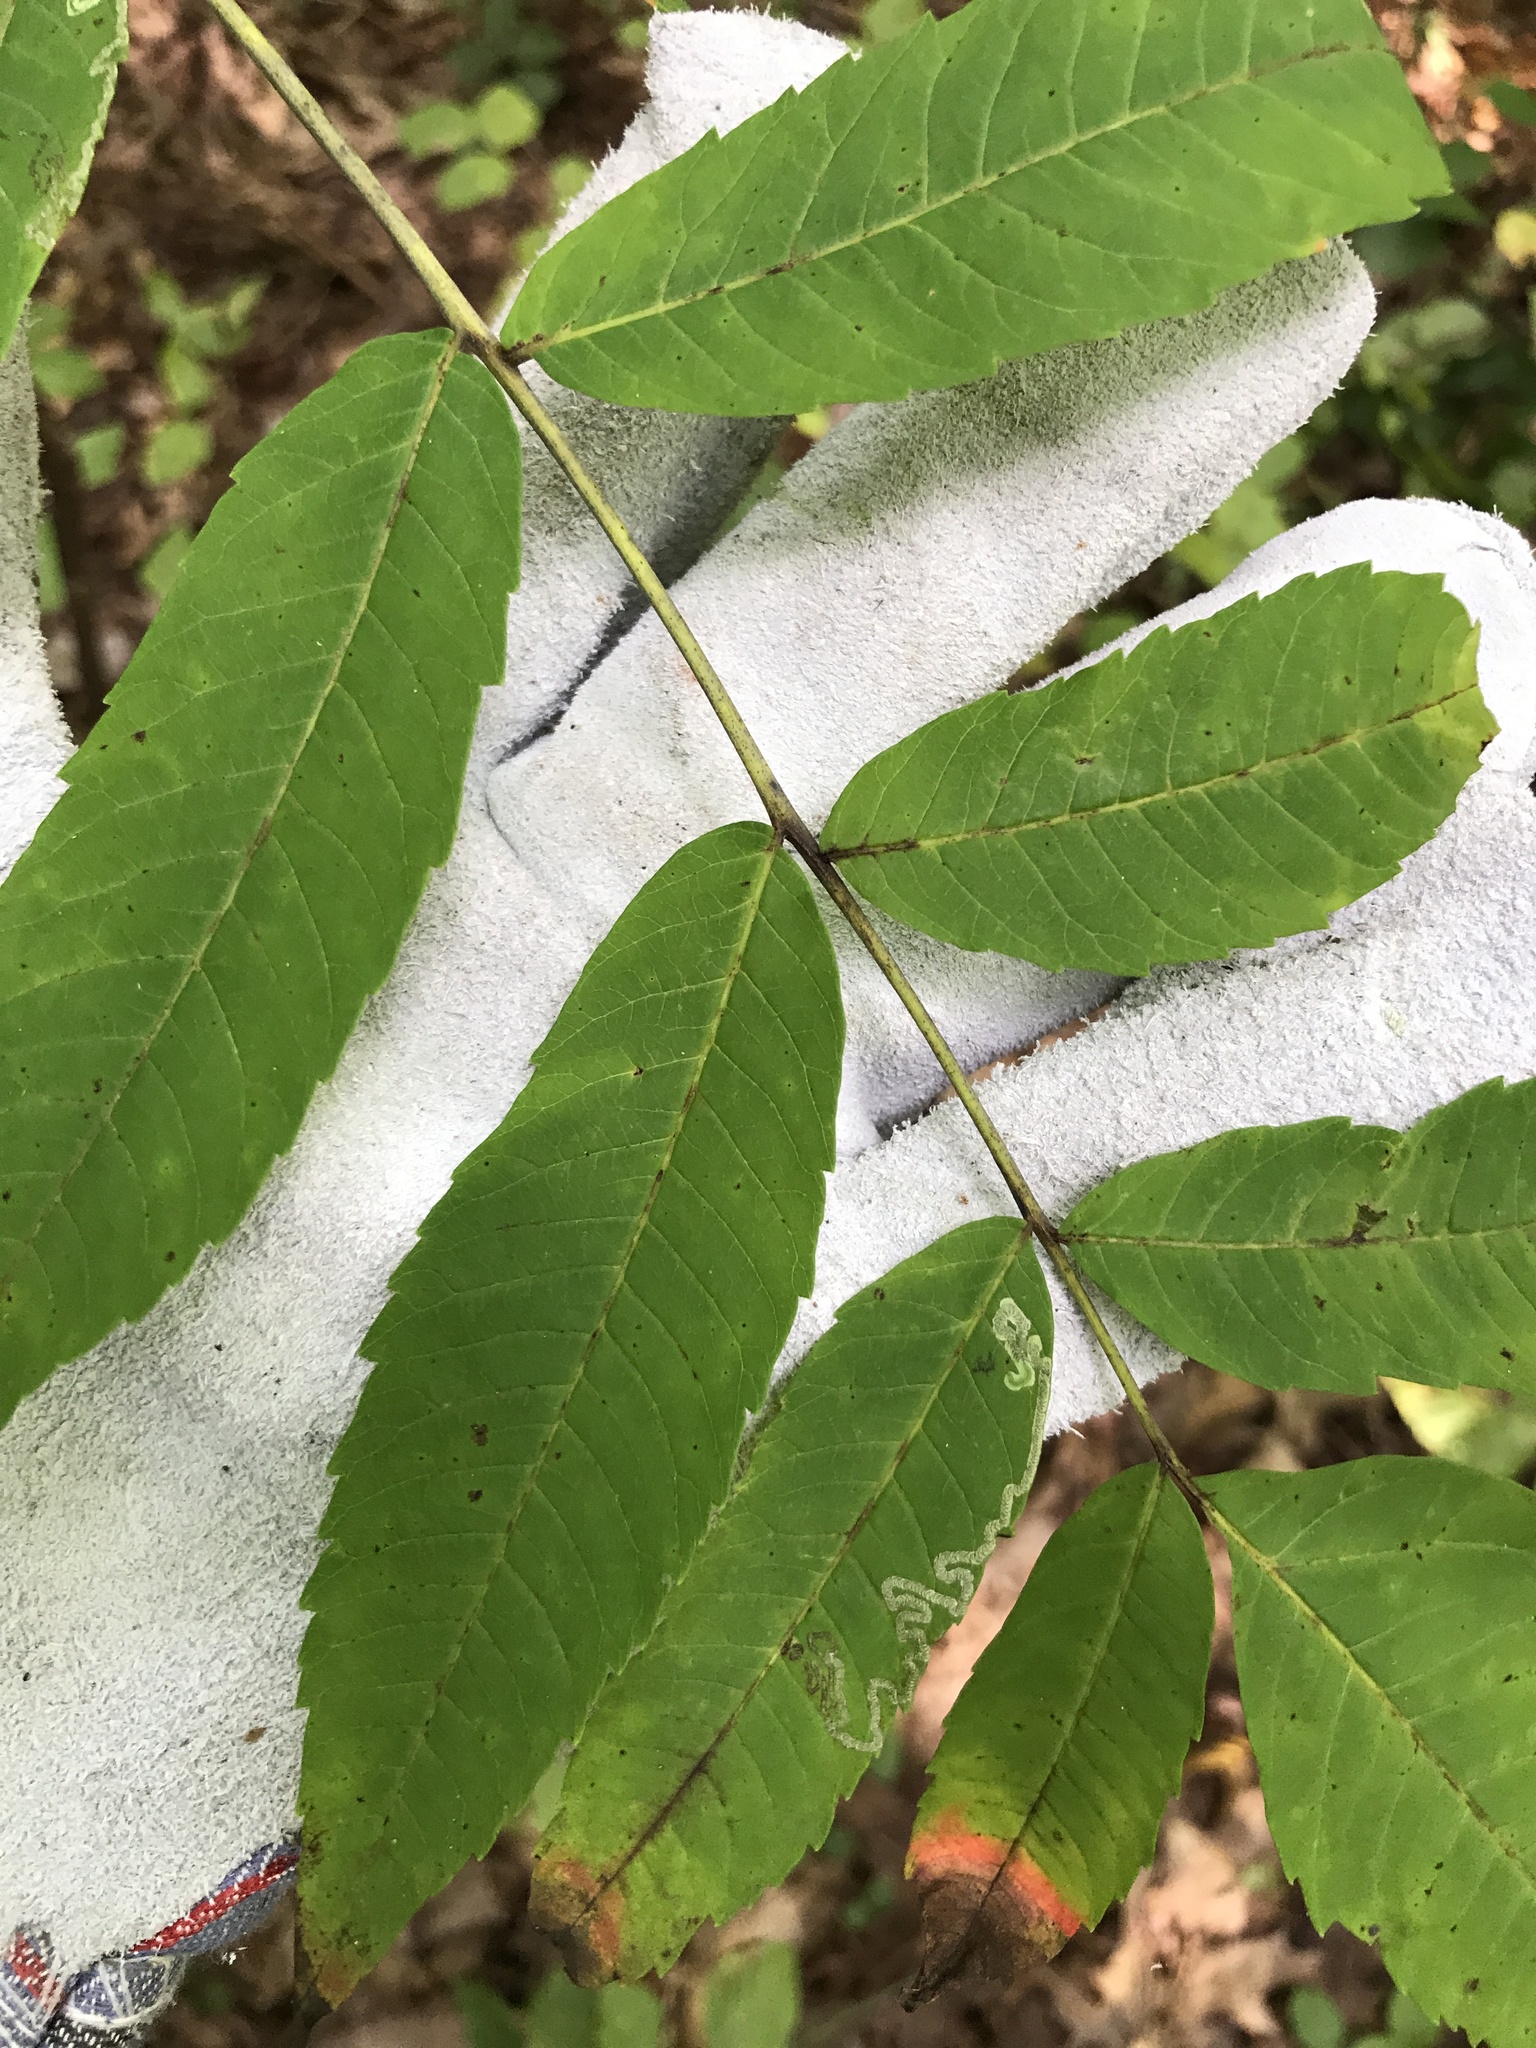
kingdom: Plantae
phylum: Tracheophyta
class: Magnoliopsida
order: Sapindales
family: Anacardiaceae
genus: Rhus
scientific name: Rhus glabra
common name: Scarlet sumac
